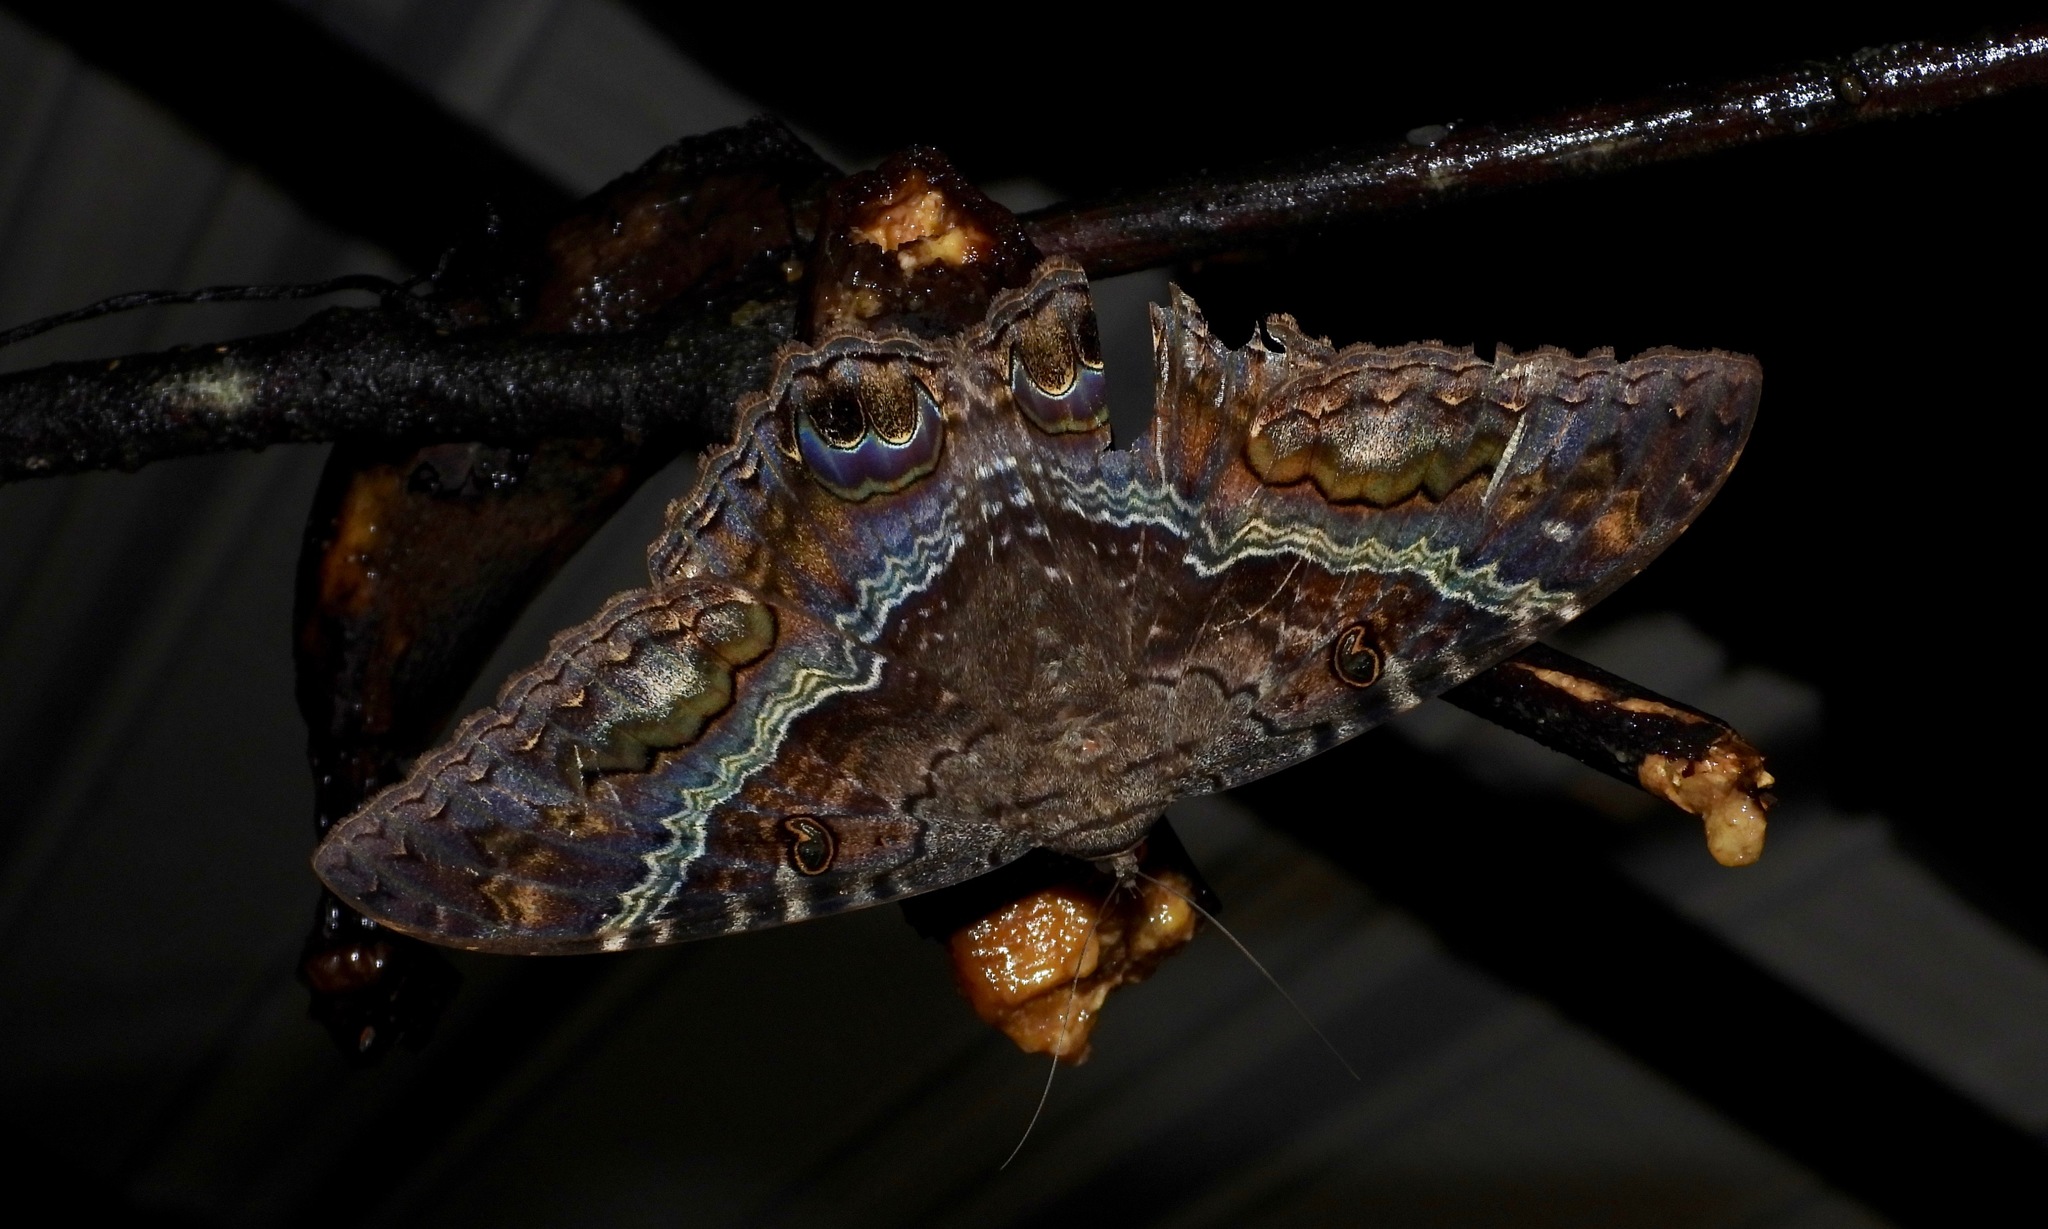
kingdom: Animalia
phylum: Arthropoda
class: Insecta
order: Lepidoptera
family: Erebidae
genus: Ascalapha
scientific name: Ascalapha odorata
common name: Black witch
